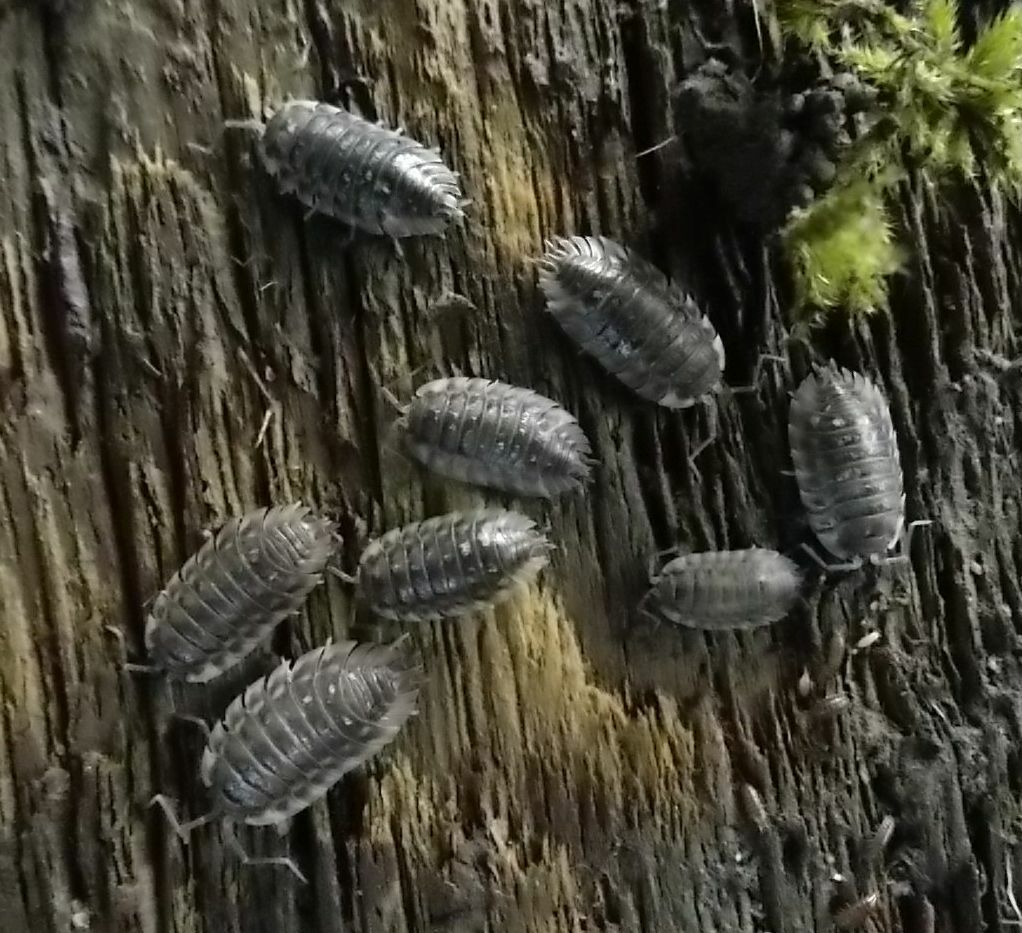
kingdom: Animalia
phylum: Arthropoda
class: Malacostraca
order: Isopoda
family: Oniscidae
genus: Oniscus
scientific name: Oniscus asellus
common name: Common shiny woodlouse
